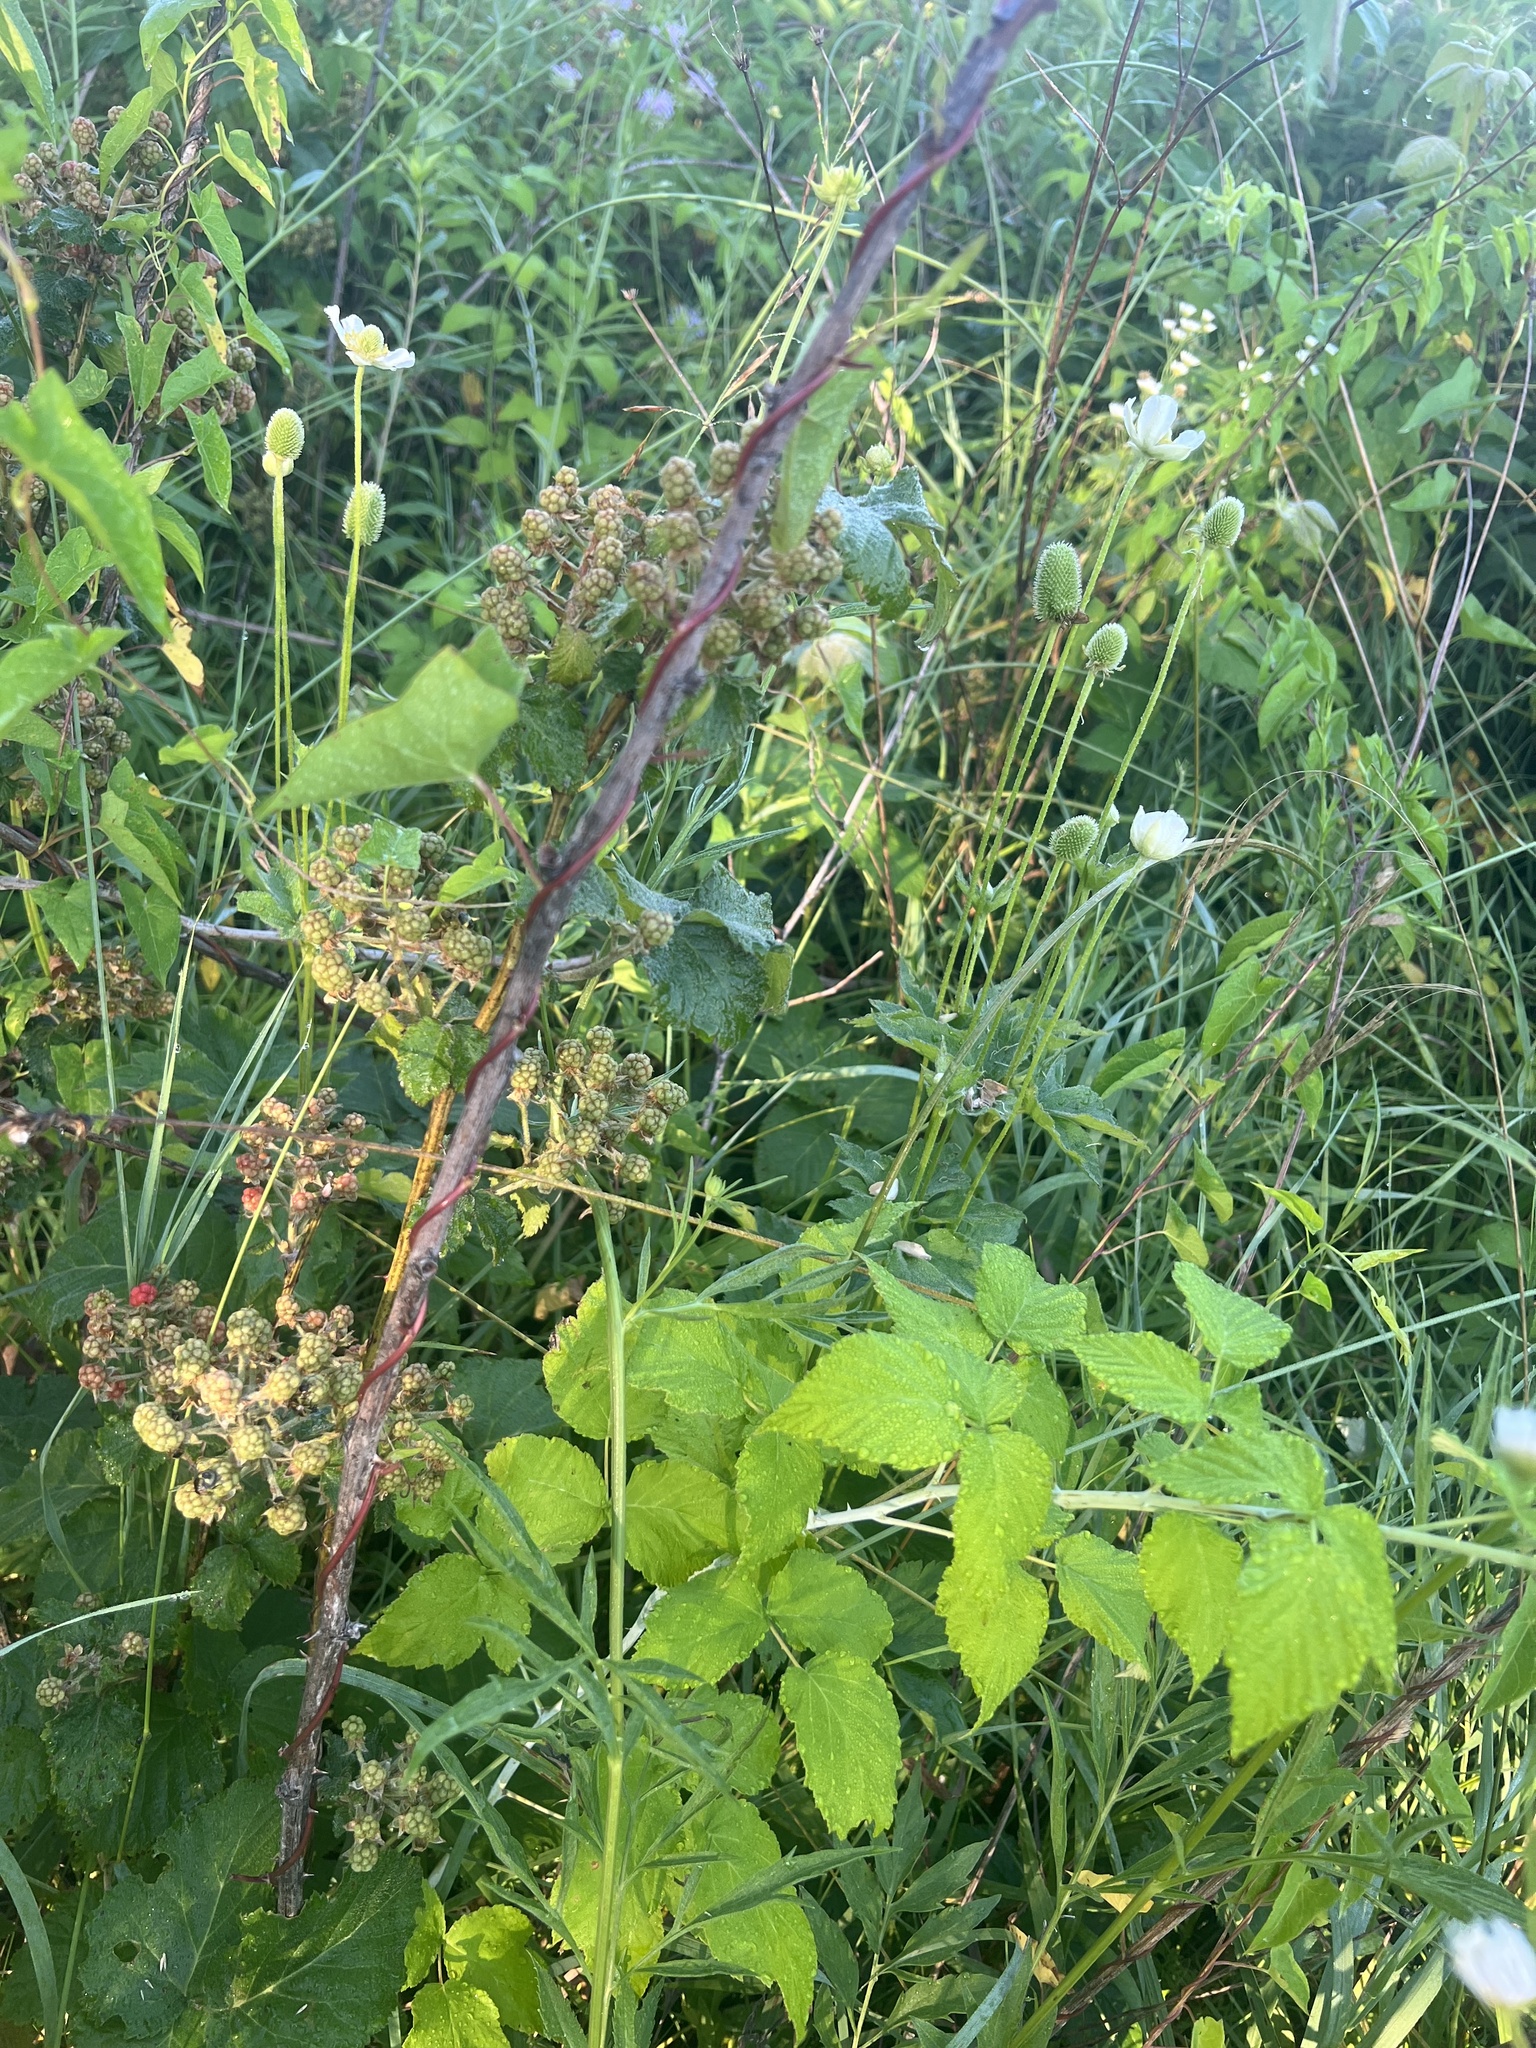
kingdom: Plantae
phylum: Tracheophyta
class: Magnoliopsida
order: Rosales
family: Rosaceae
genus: Rubus
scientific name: Rubus occidentalis
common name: Black raspberry
